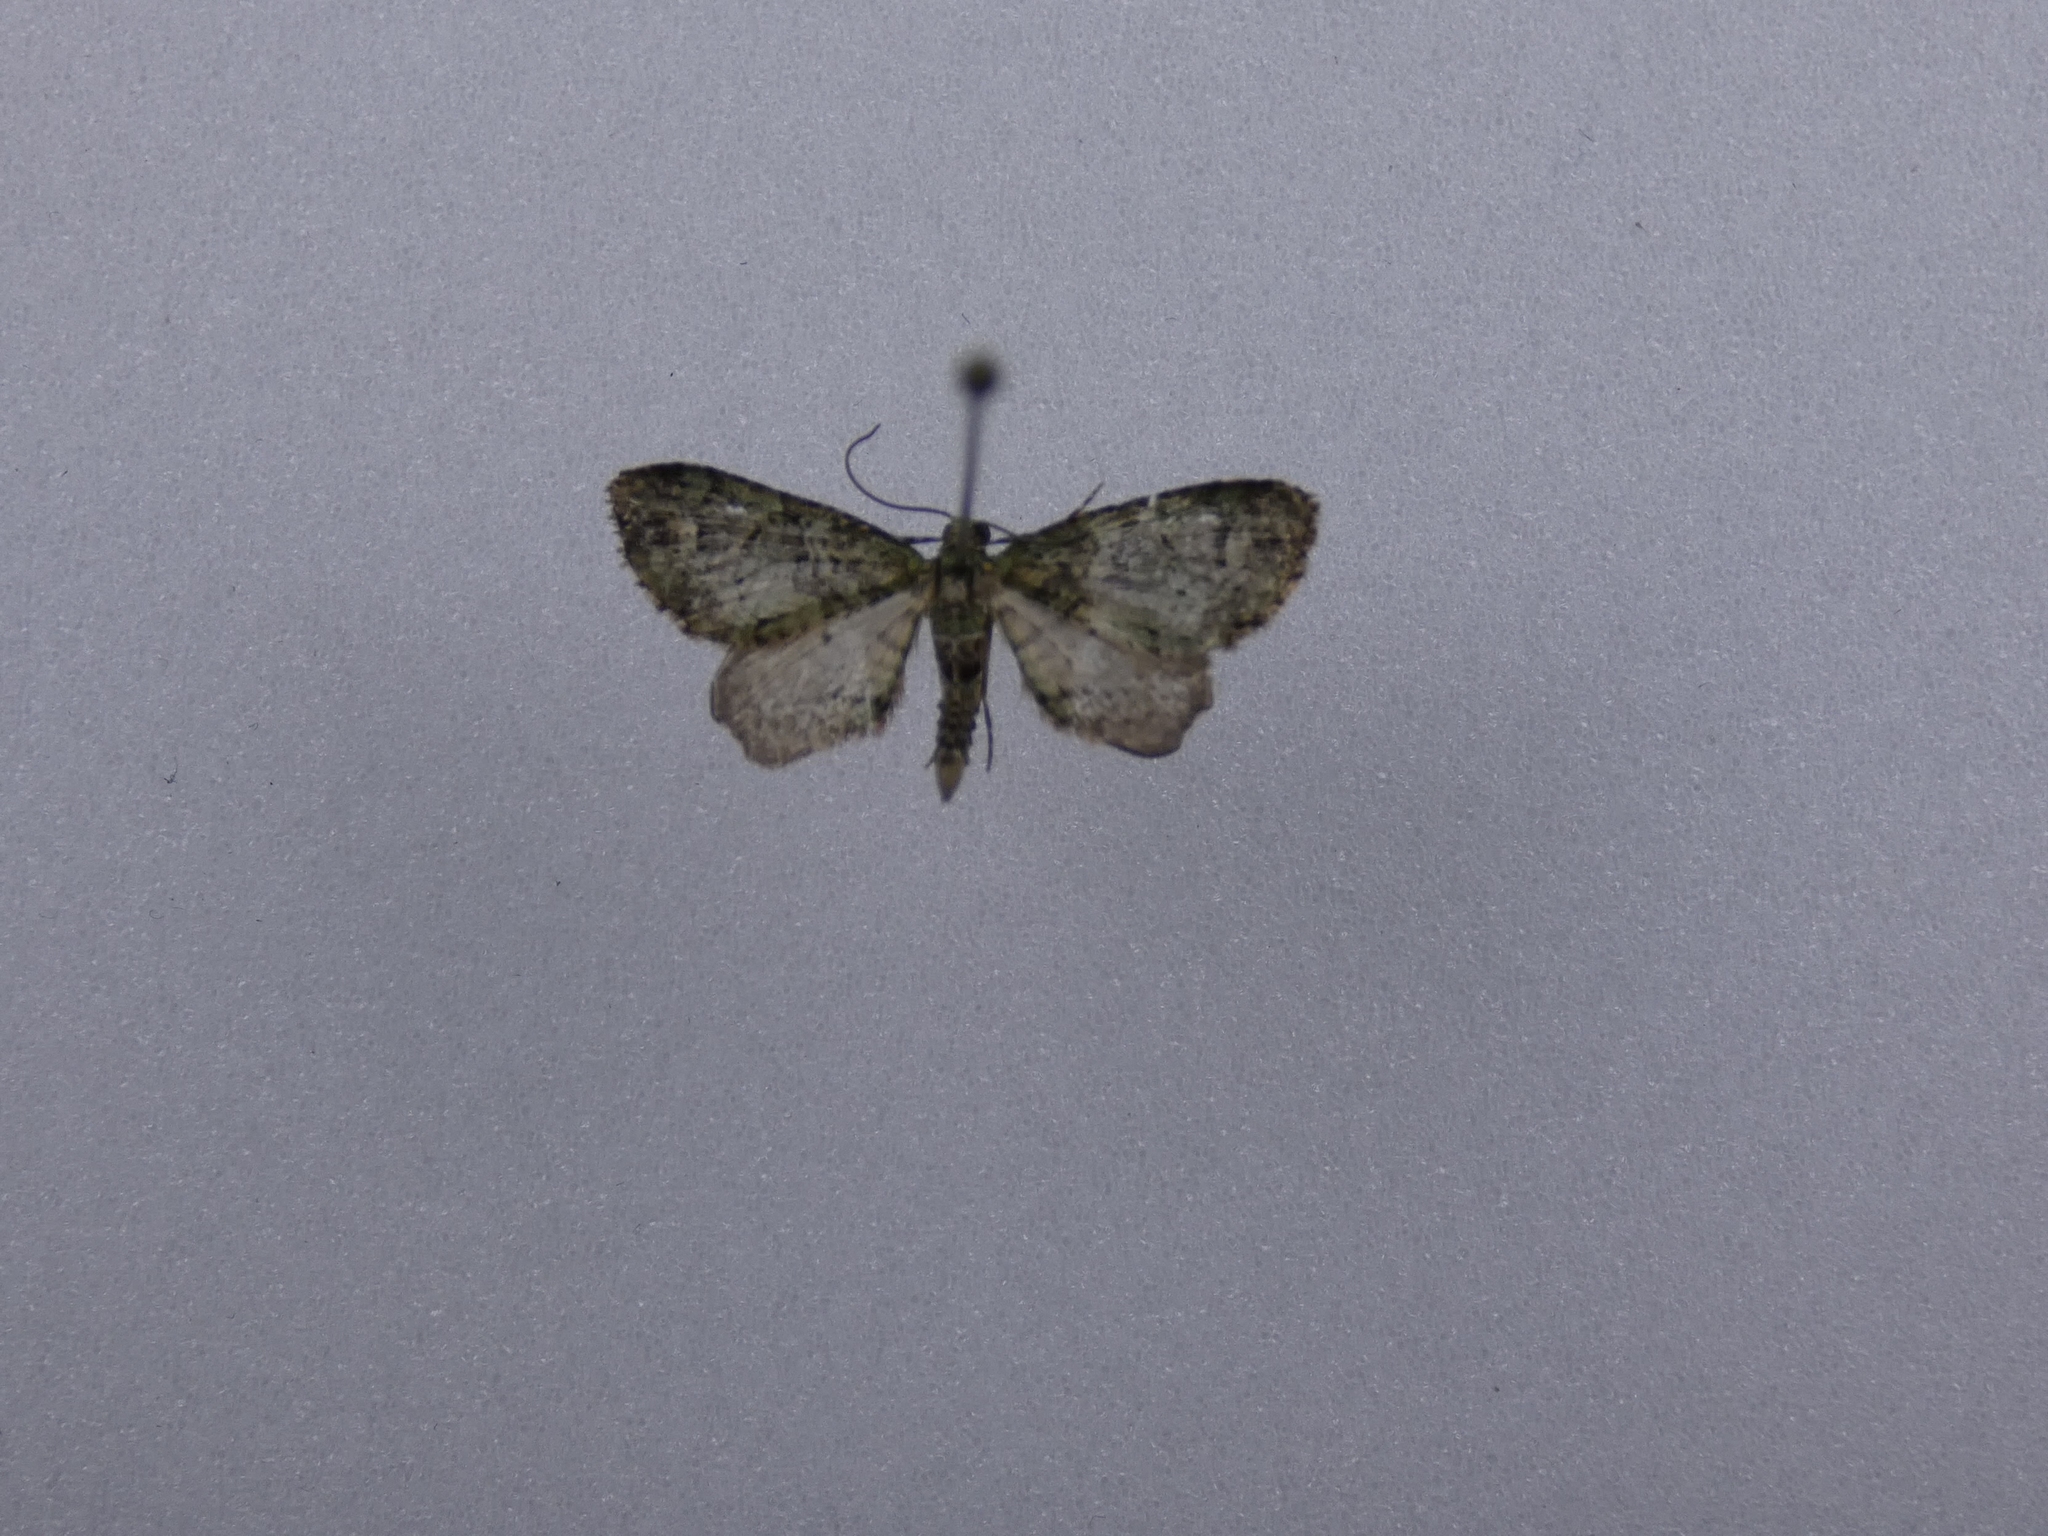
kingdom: Animalia
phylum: Arthropoda
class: Insecta
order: Lepidoptera
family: Geometridae
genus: Idaea
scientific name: Idaea mutanda
